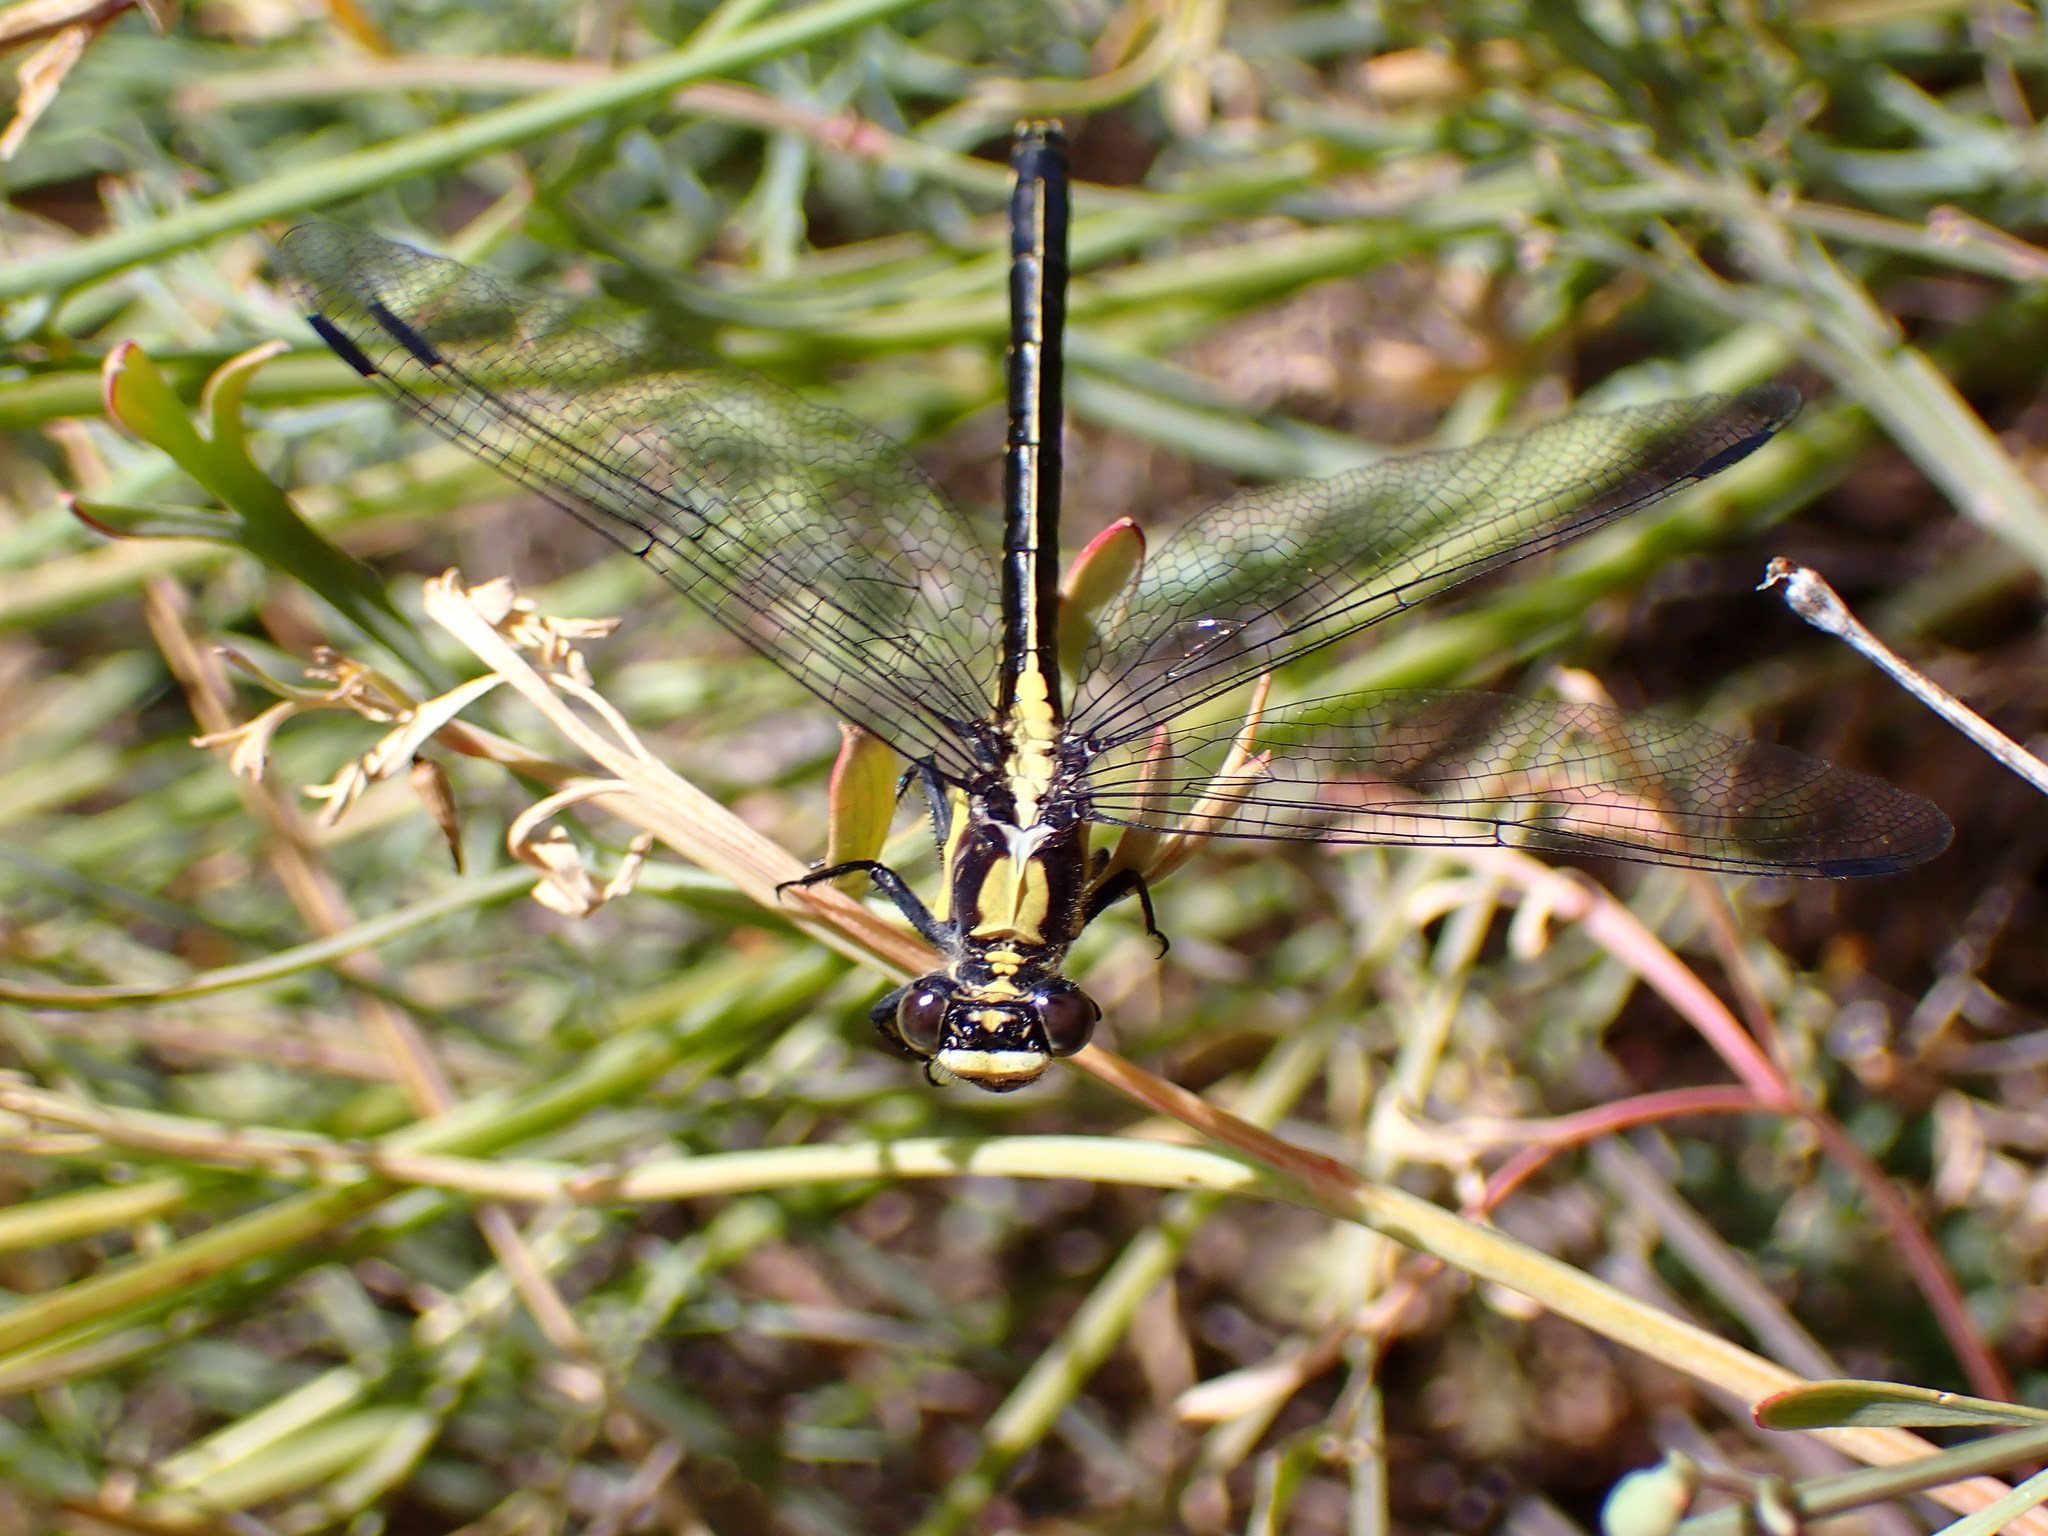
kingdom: Animalia
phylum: Arthropoda
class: Insecta
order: Odonata
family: Gomphidae
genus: Octogomphus
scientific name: Octogomphus specularis
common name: Grappletail
